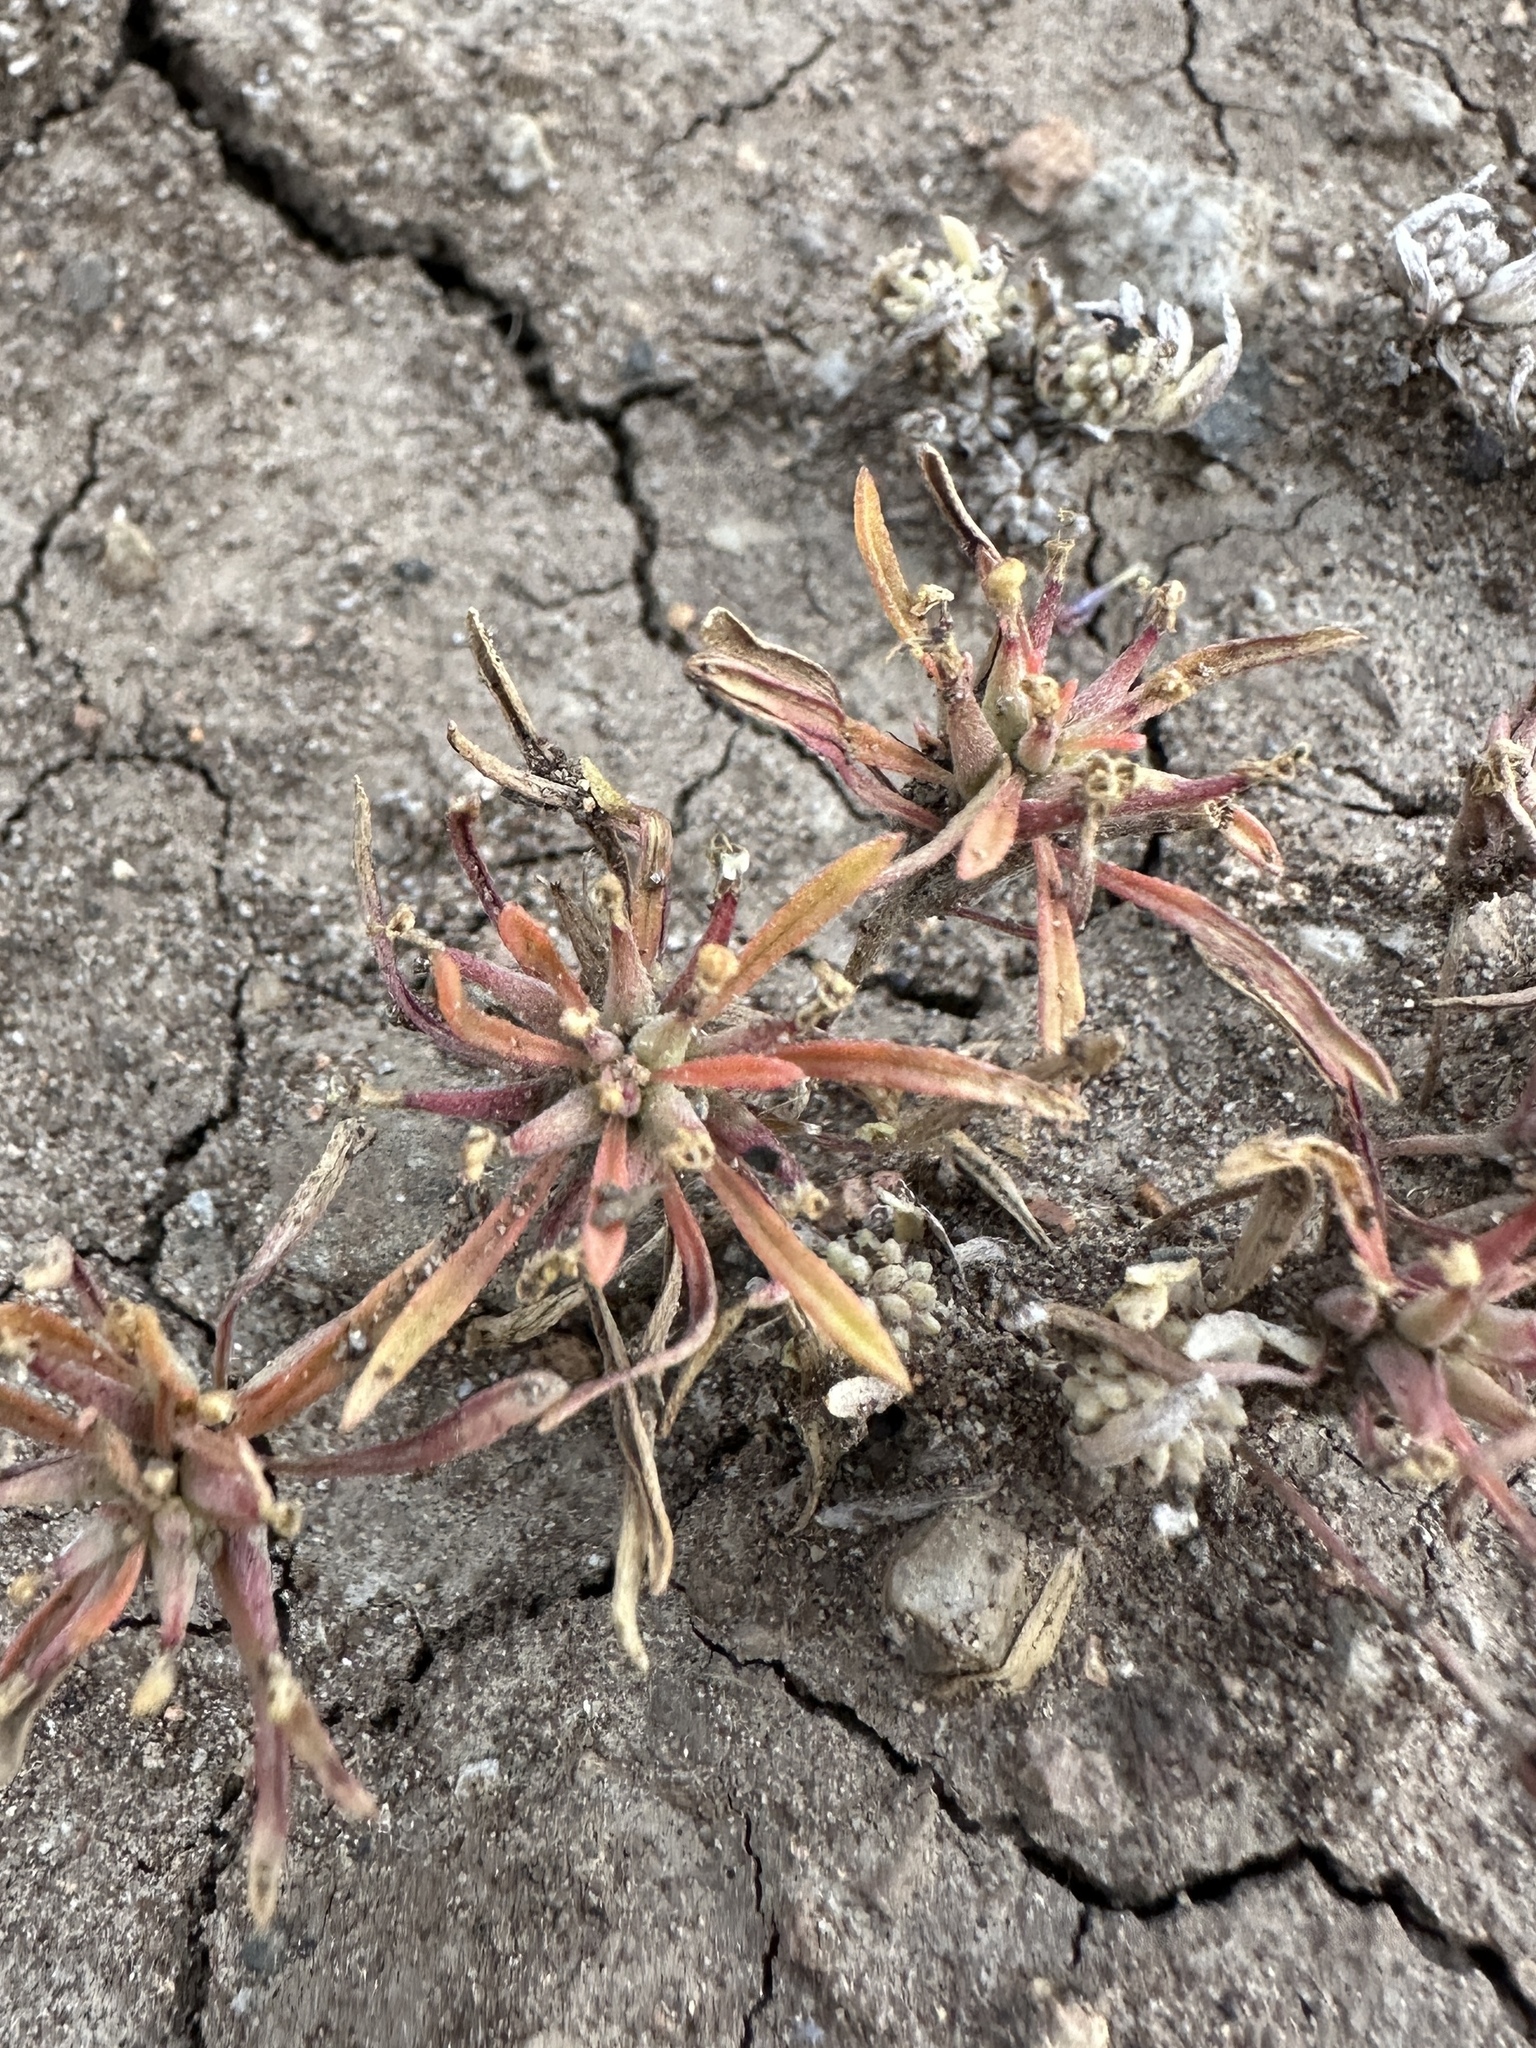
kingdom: Plantae
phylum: Tracheophyta
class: Magnoliopsida
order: Myrtales
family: Onagraceae
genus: Neoholmgrenia
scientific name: Neoholmgrenia andina
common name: Andean evening primrose
